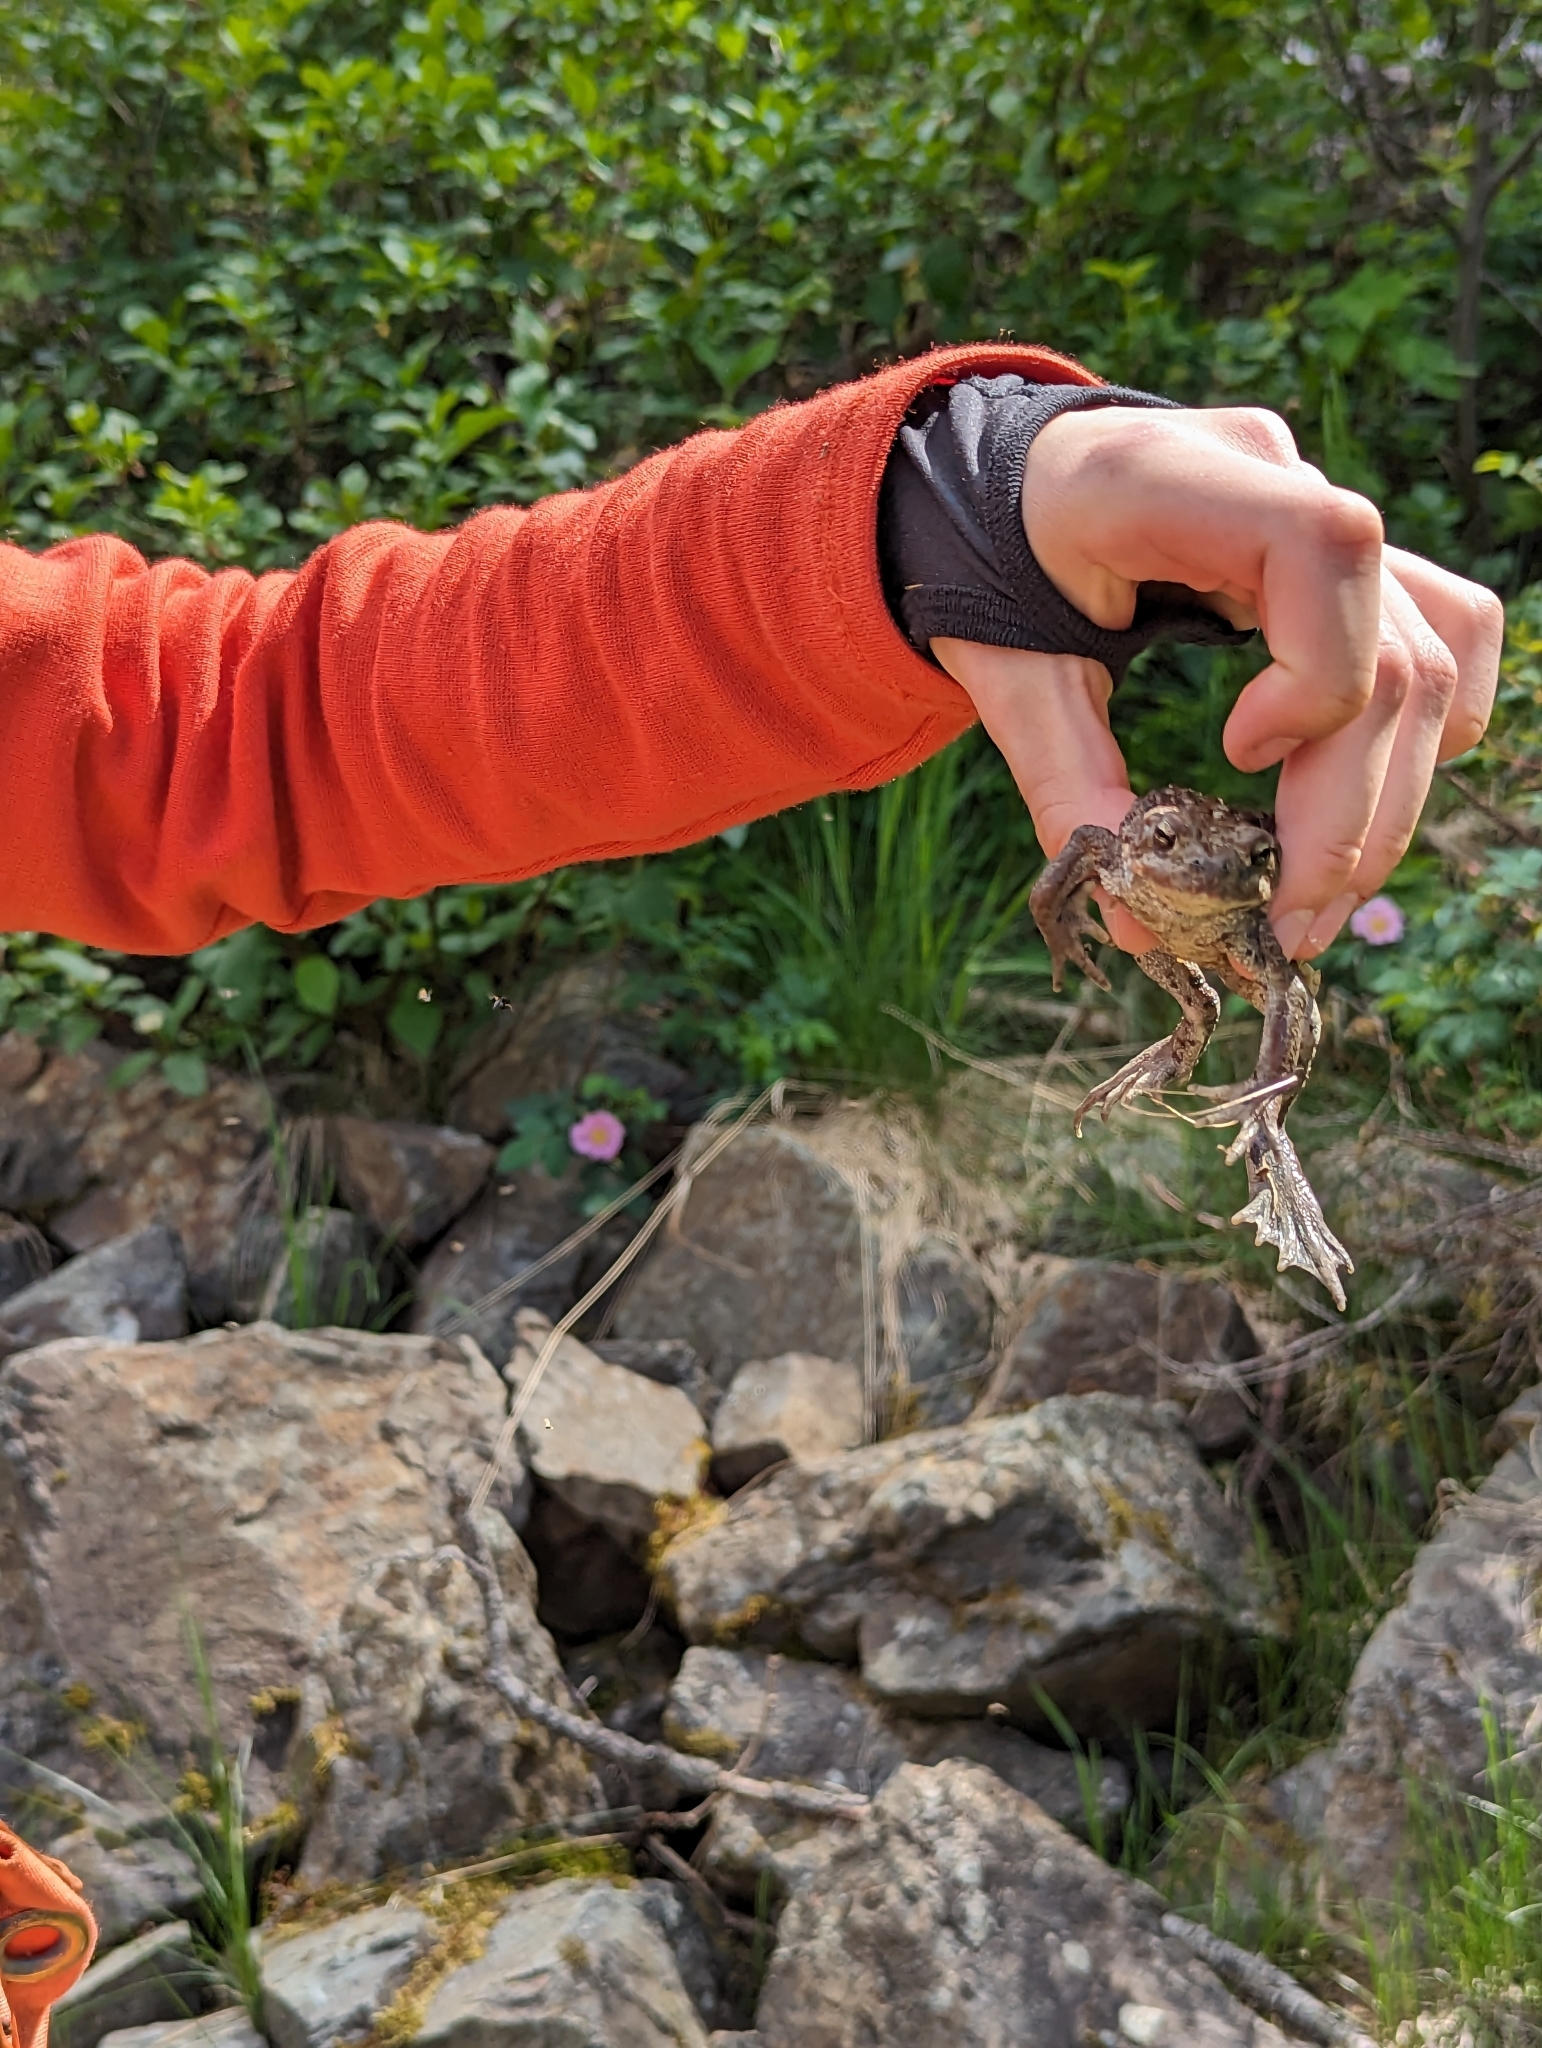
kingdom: Animalia
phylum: Chordata
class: Amphibia
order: Anura
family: Bufonidae
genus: Anaxyrus
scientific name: Anaxyrus boreas
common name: Western toad
